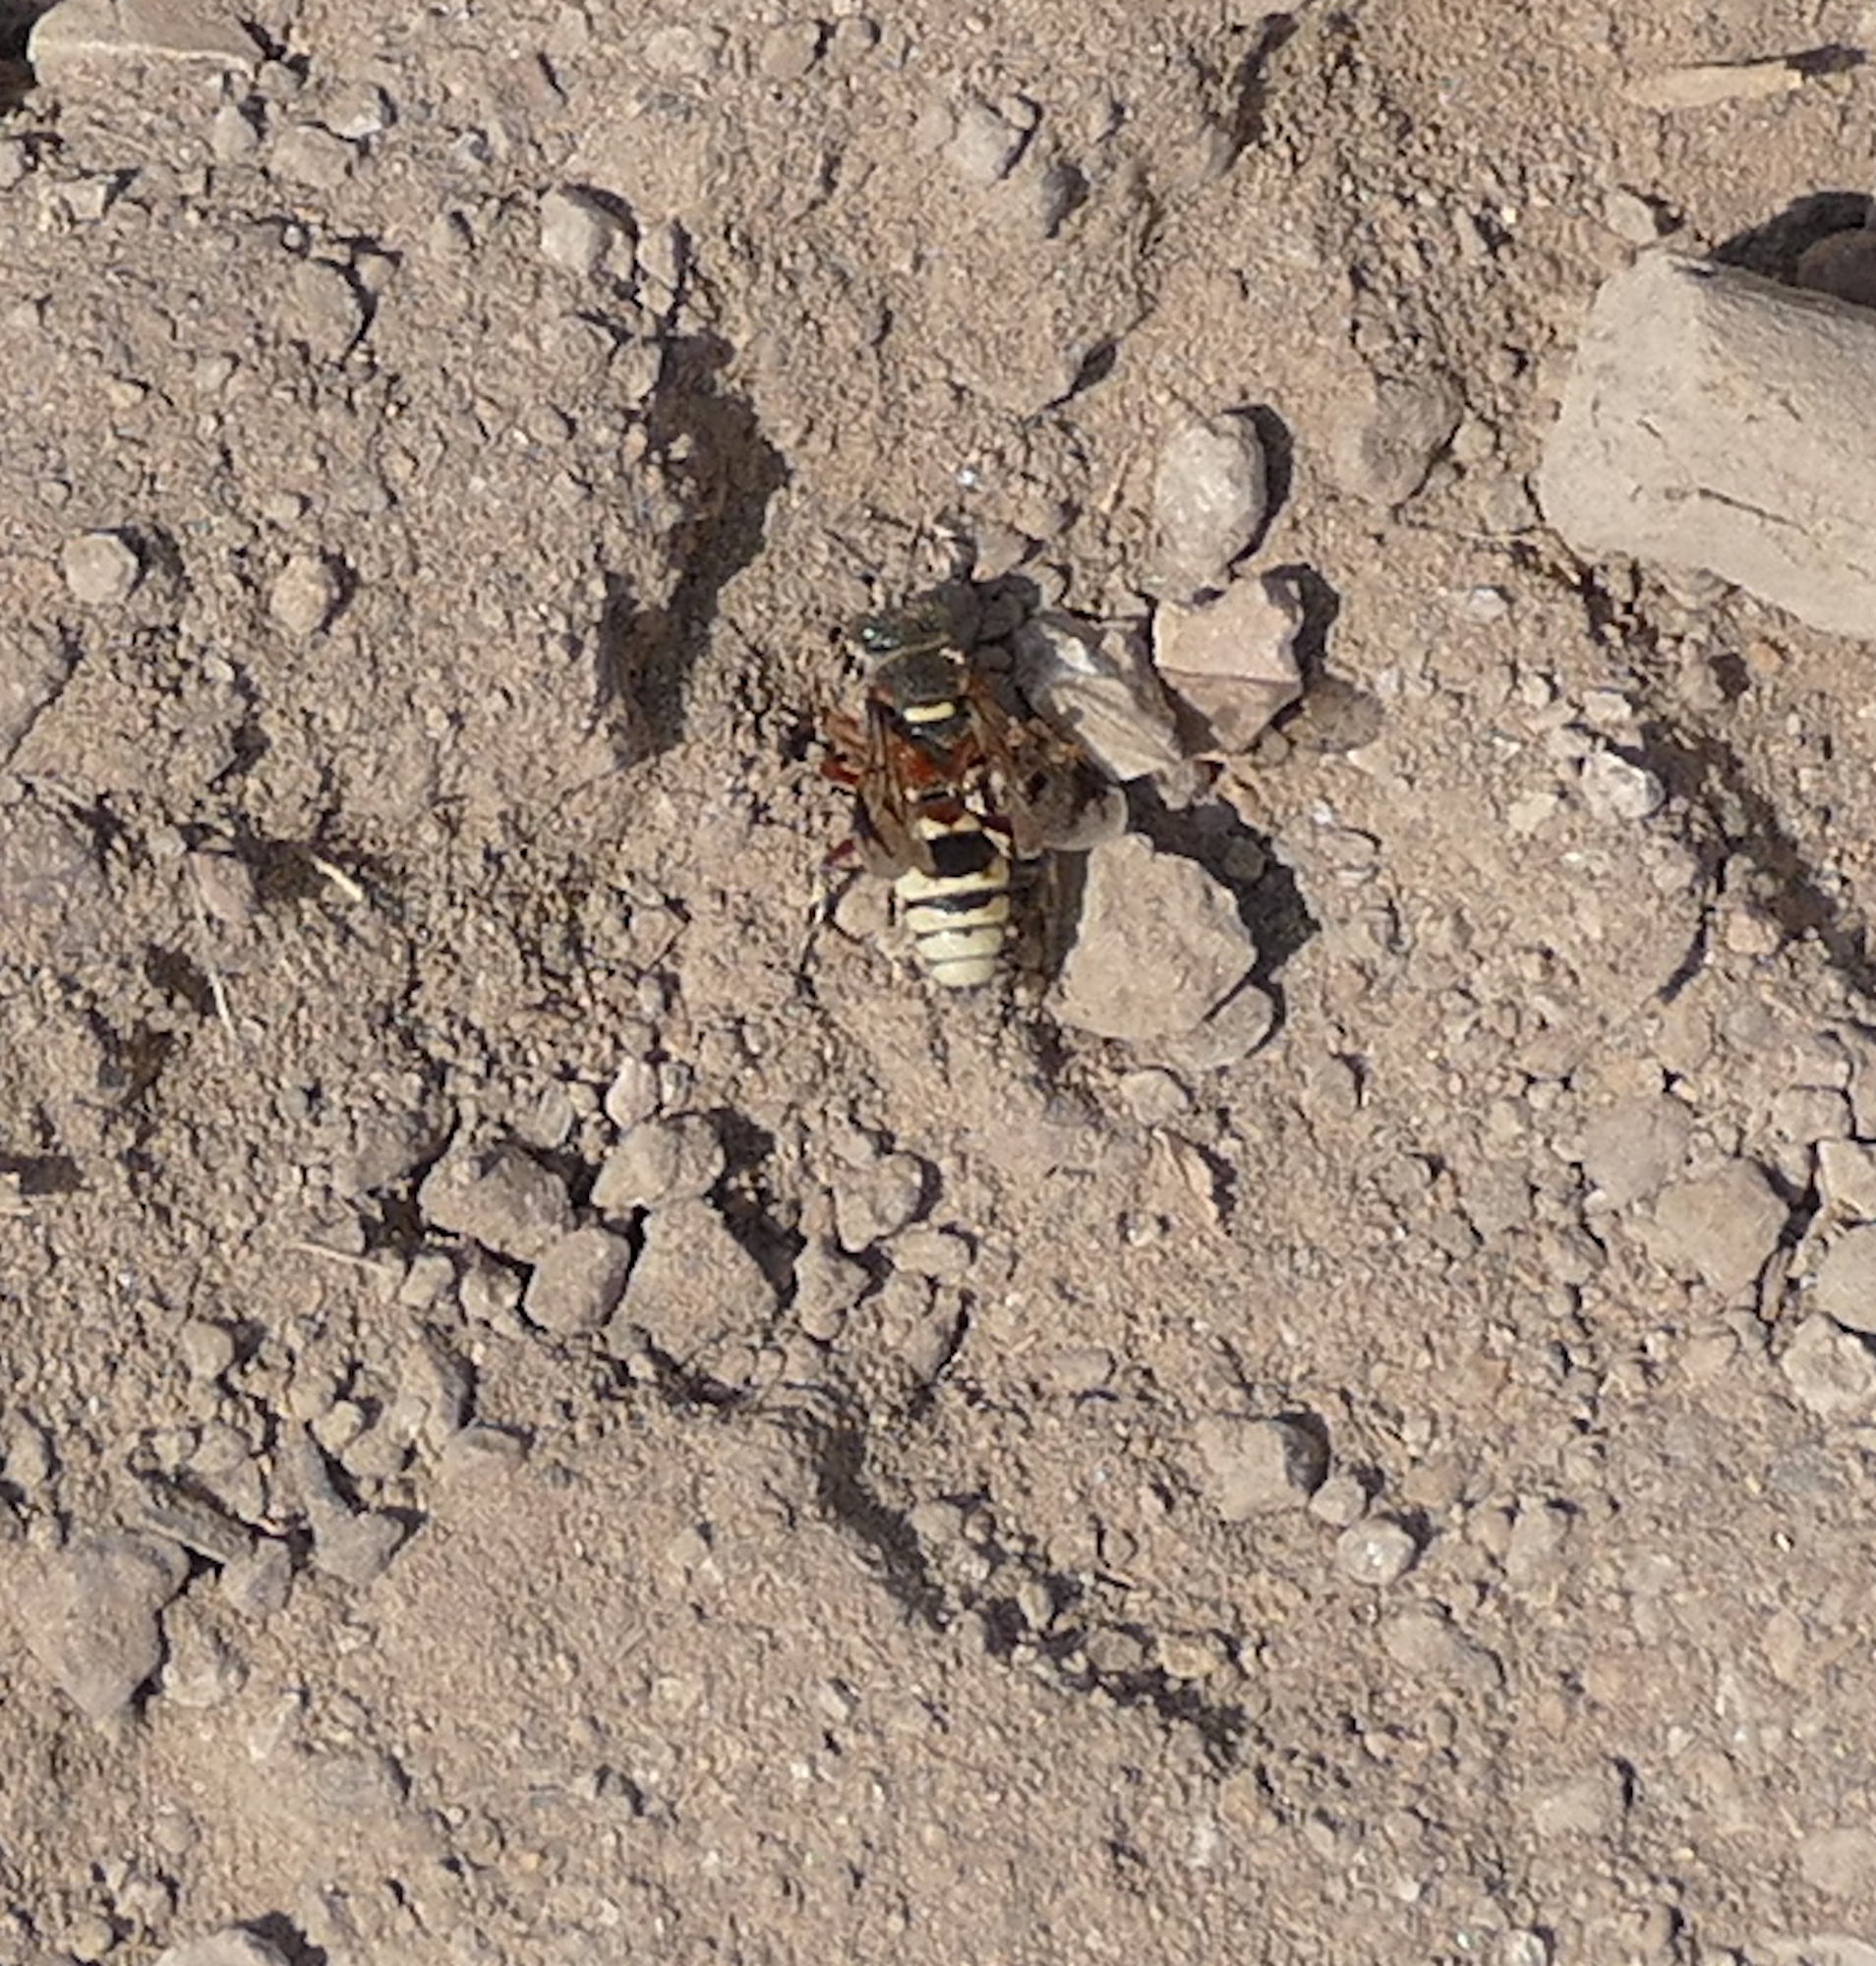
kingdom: Animalia
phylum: Arthropoda
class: Insecta
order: Hymenoptera
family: Crabronidae
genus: Hoplisoides
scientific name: Hoplisoides nebulosus
